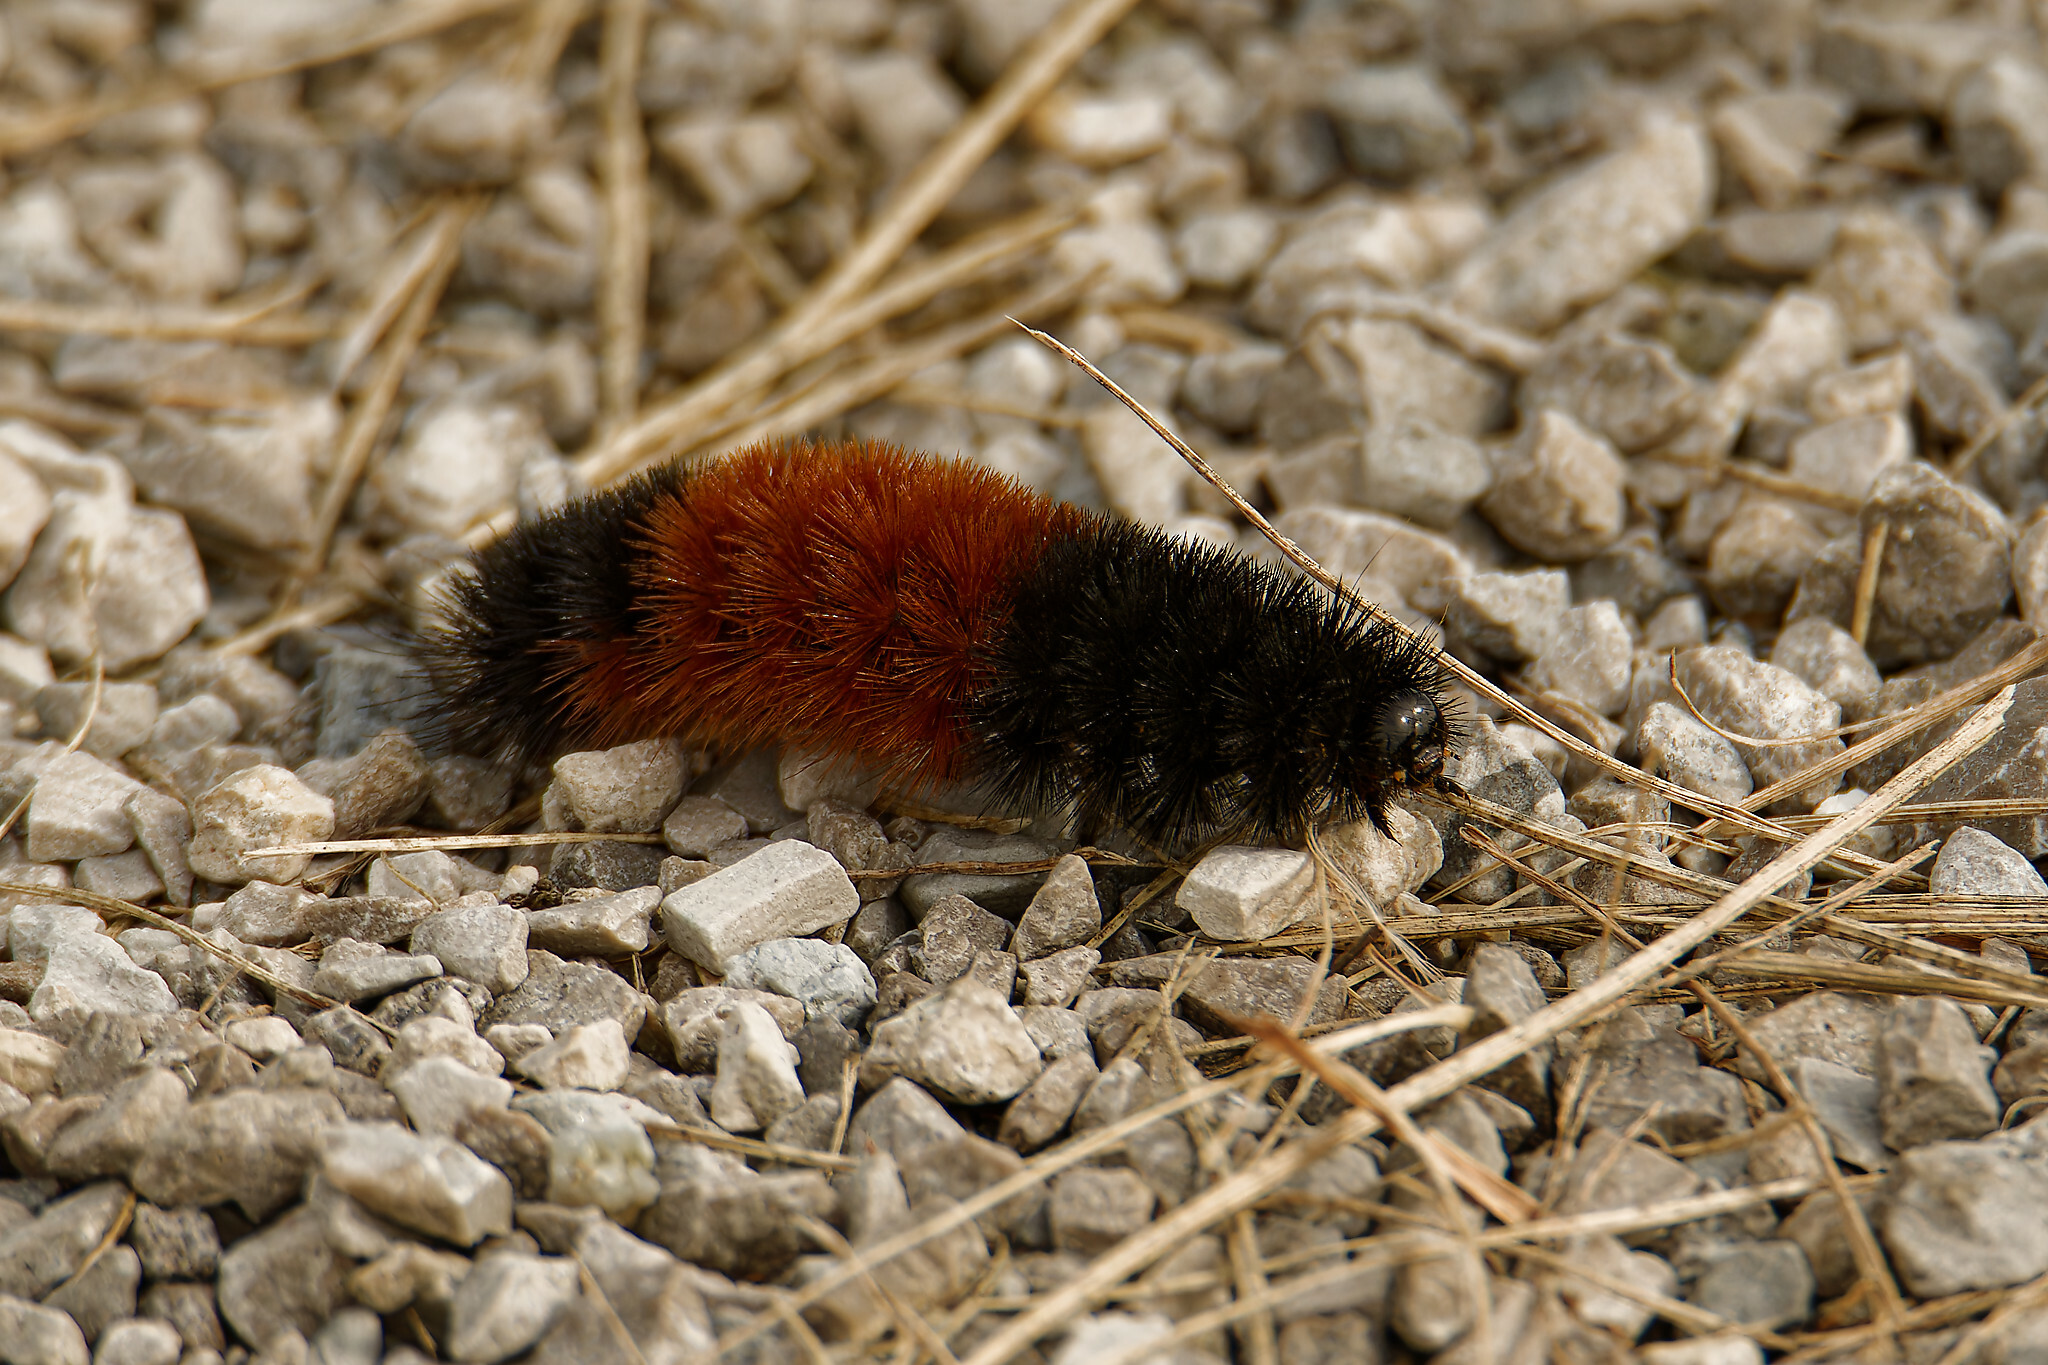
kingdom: Animalia
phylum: Arthropoda
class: Insecta
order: Lepidoptera
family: Erebidae
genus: Pyrrharctia
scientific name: Pyrrharctia isabella
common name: Isabella tiger moth
